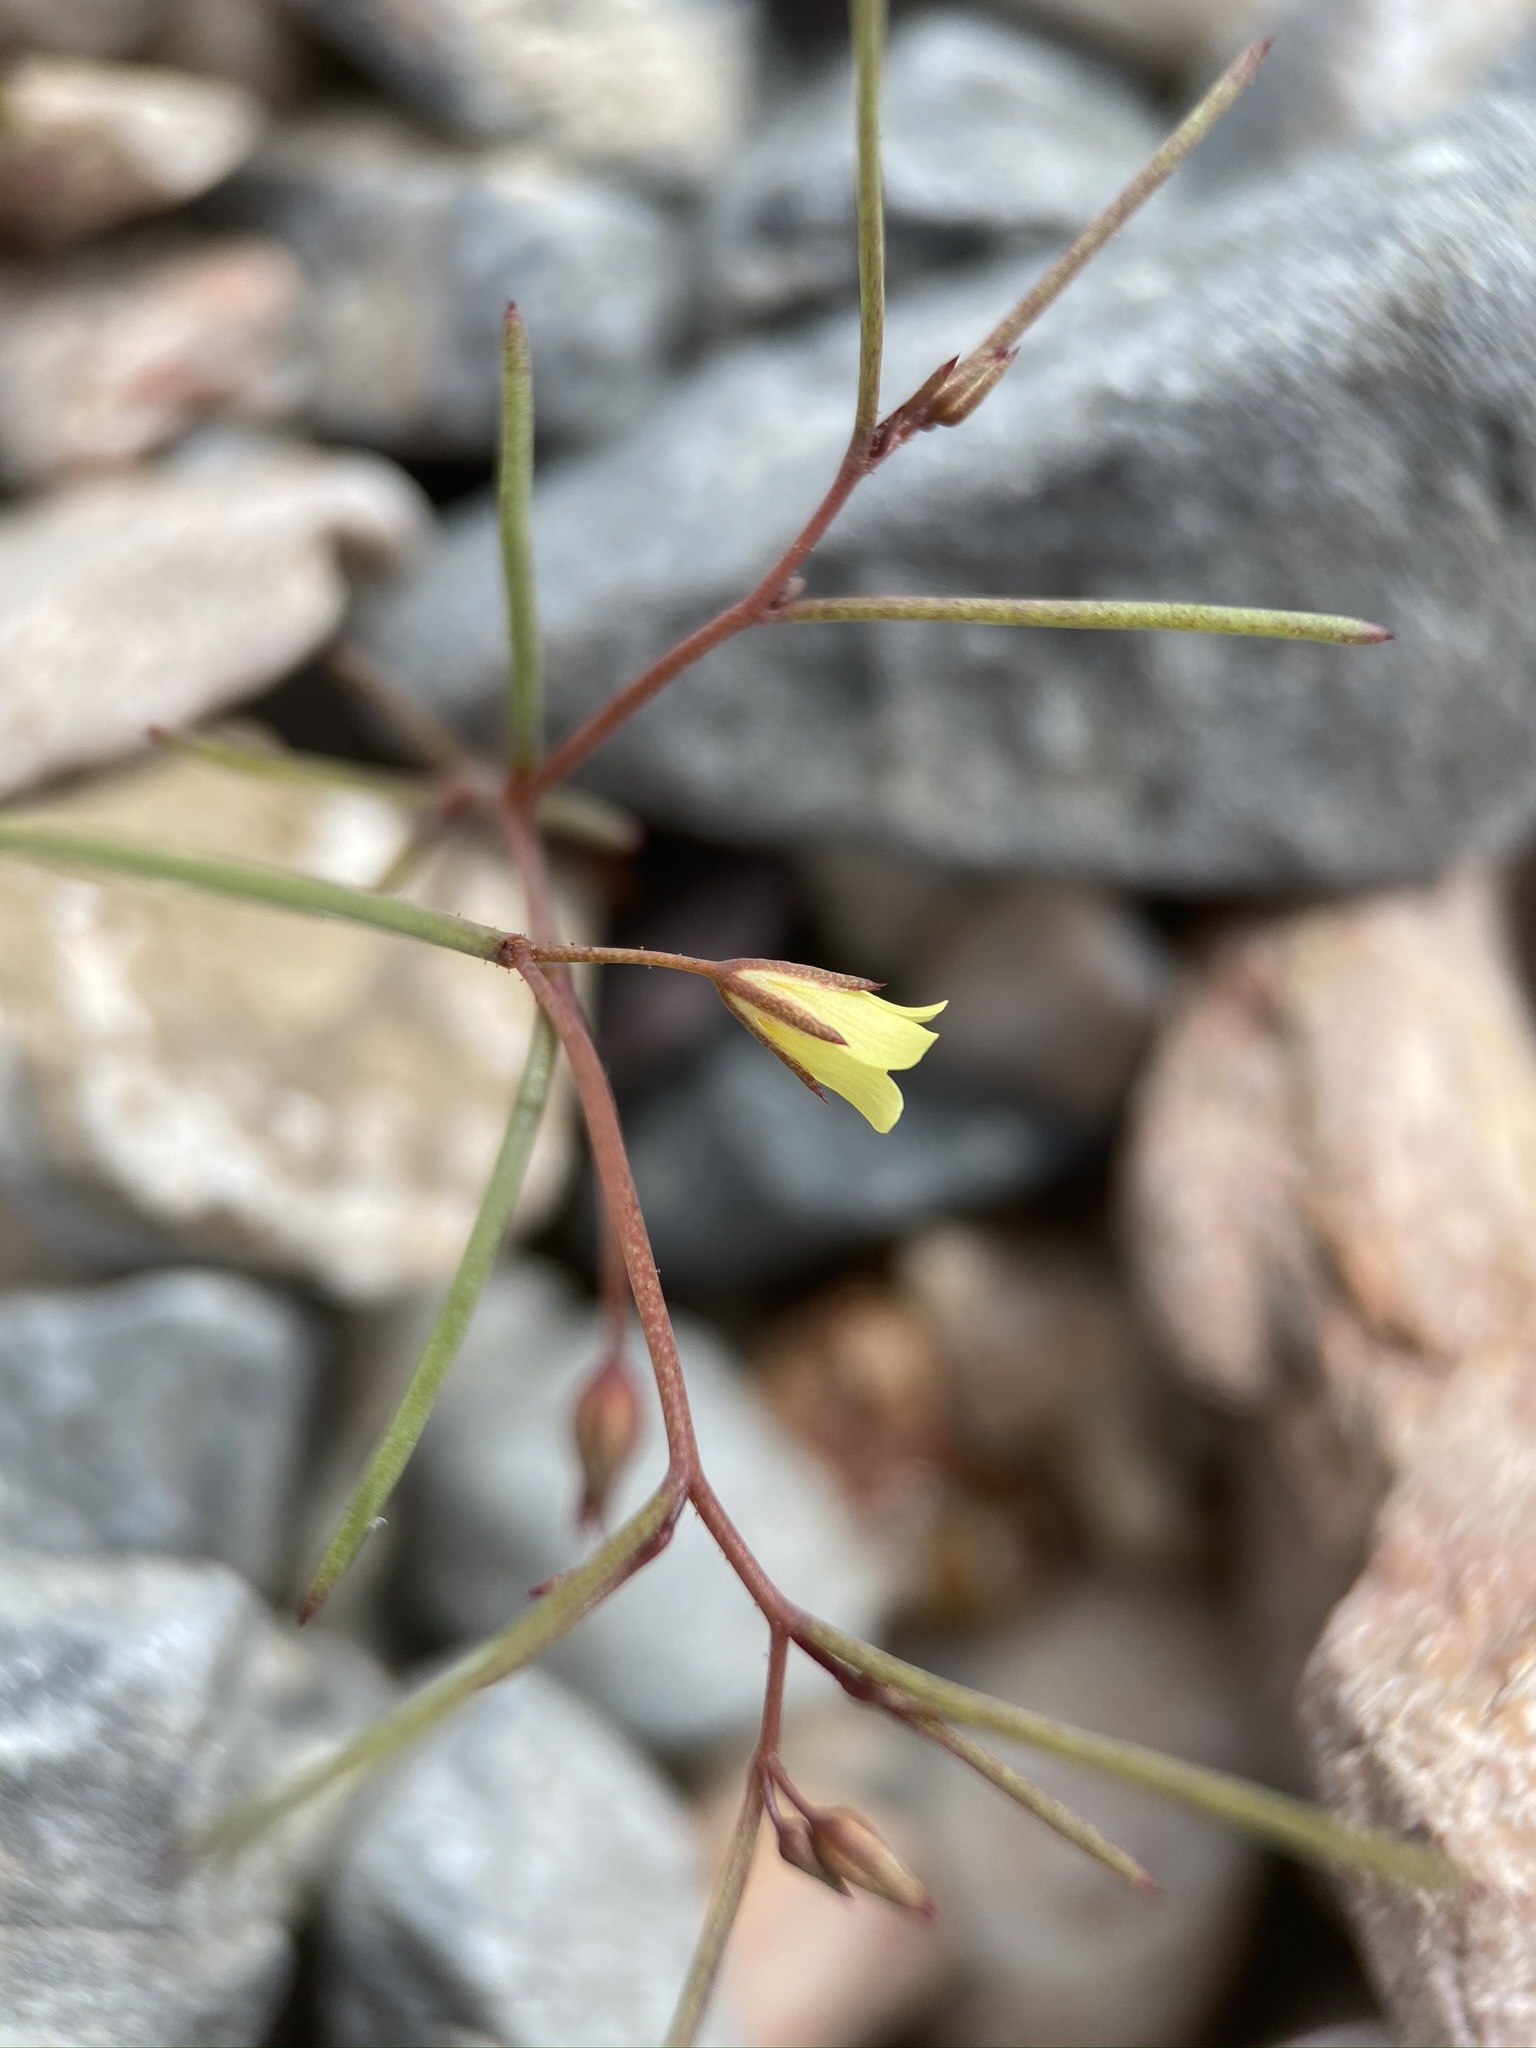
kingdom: Plantae
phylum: Tracheophyta
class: Magnoliopsida
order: Ericales
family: Polemoniaceae
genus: Linanthus
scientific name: Linanthus filiformis
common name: Yellow gilia
